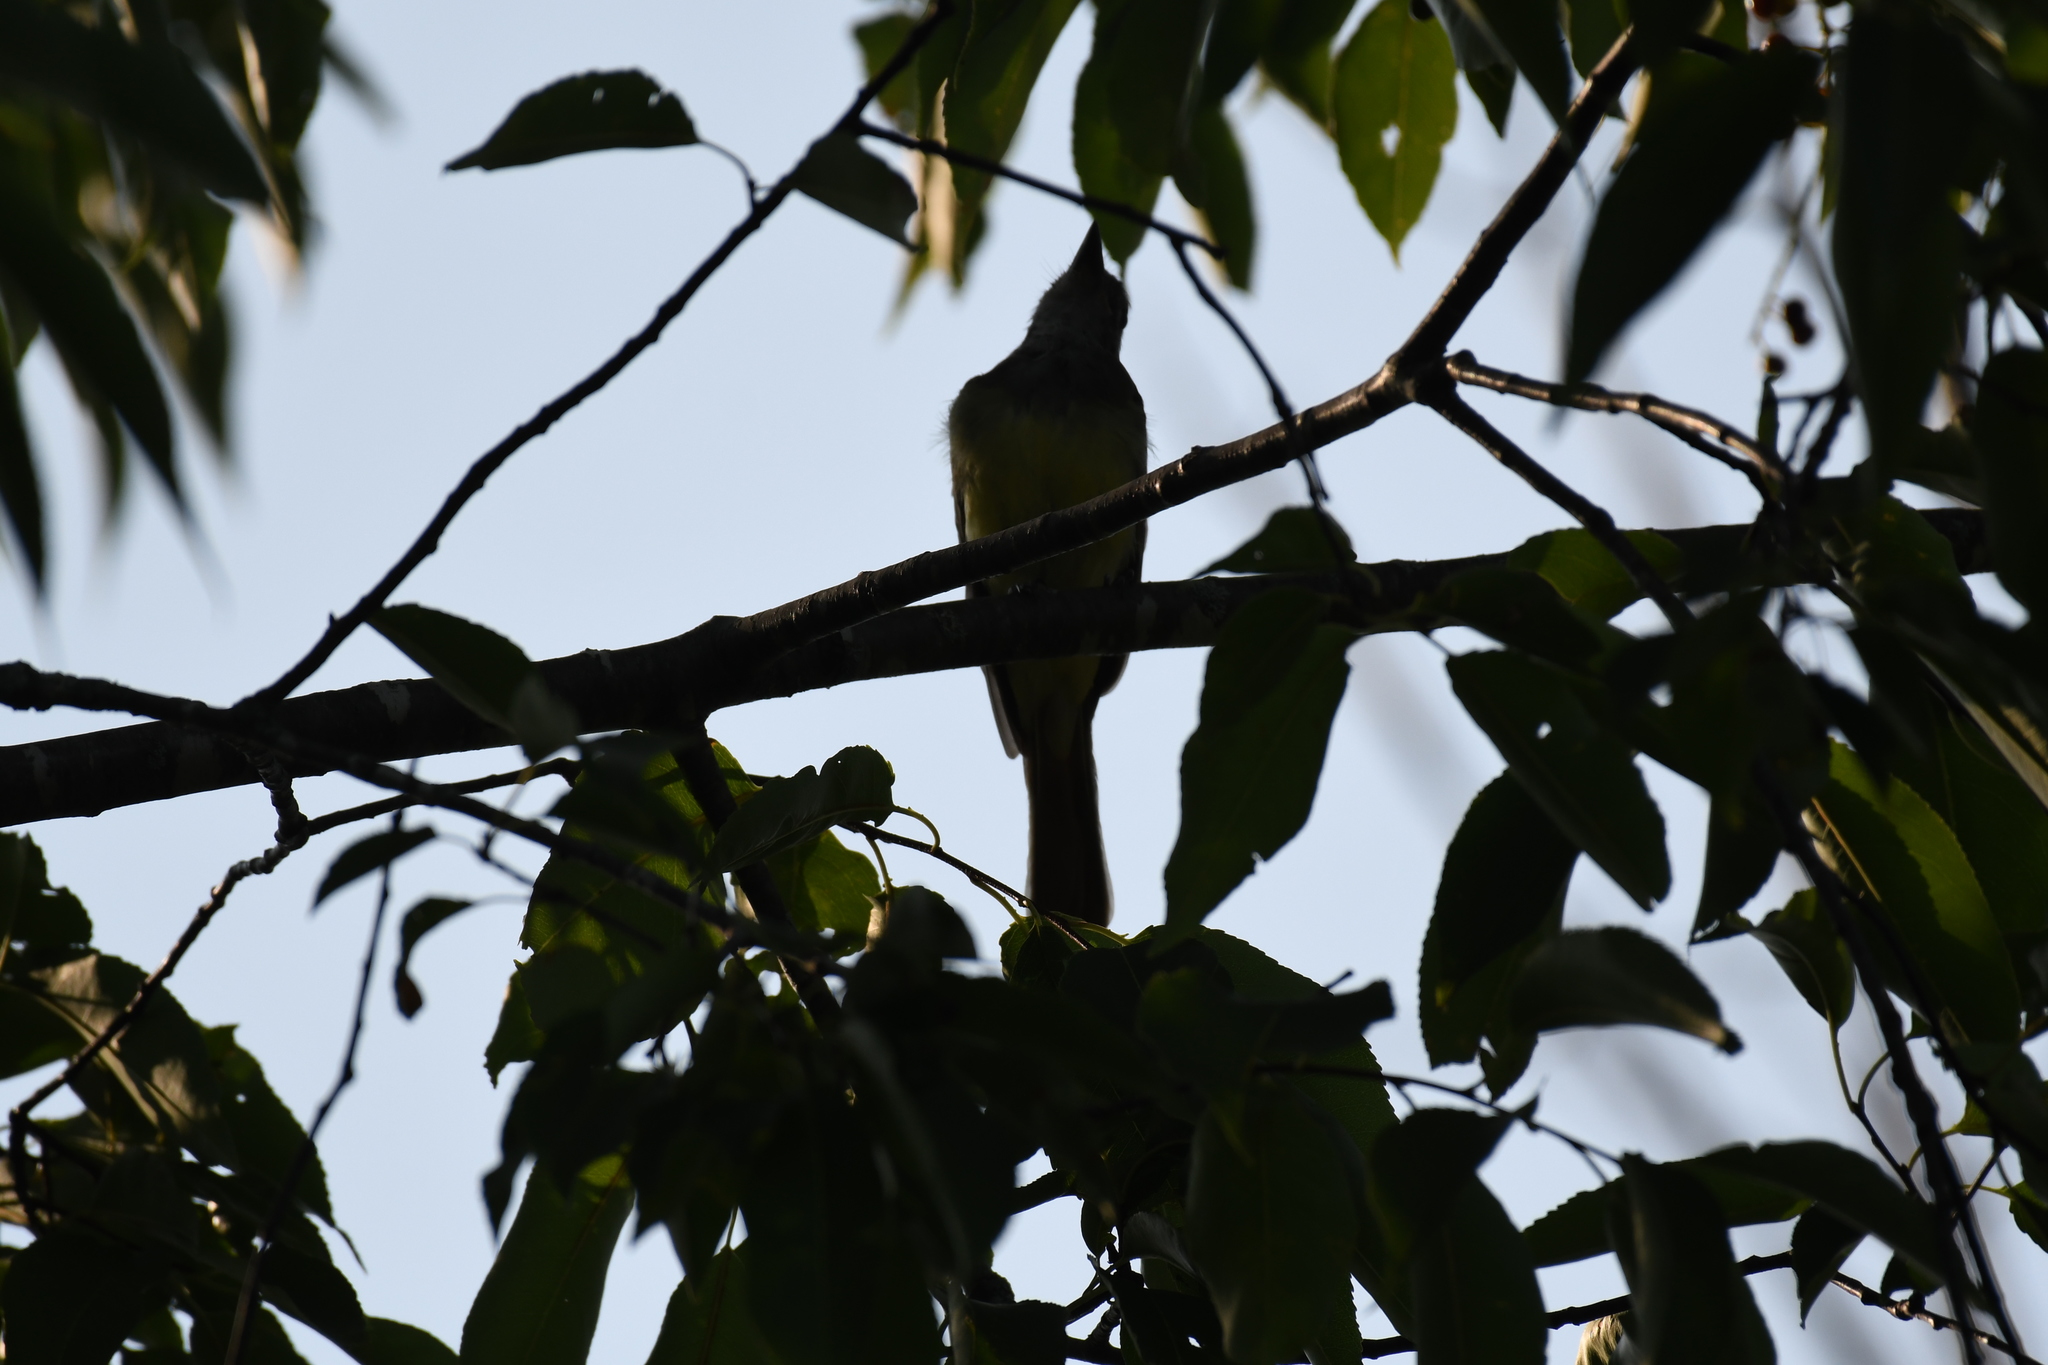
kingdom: Animalia
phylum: Chordata
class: Aves
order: Passeriformes
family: Tyrannidae
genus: Myiarchus
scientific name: Myiarchus crinitus
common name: Great crested flycatcher
